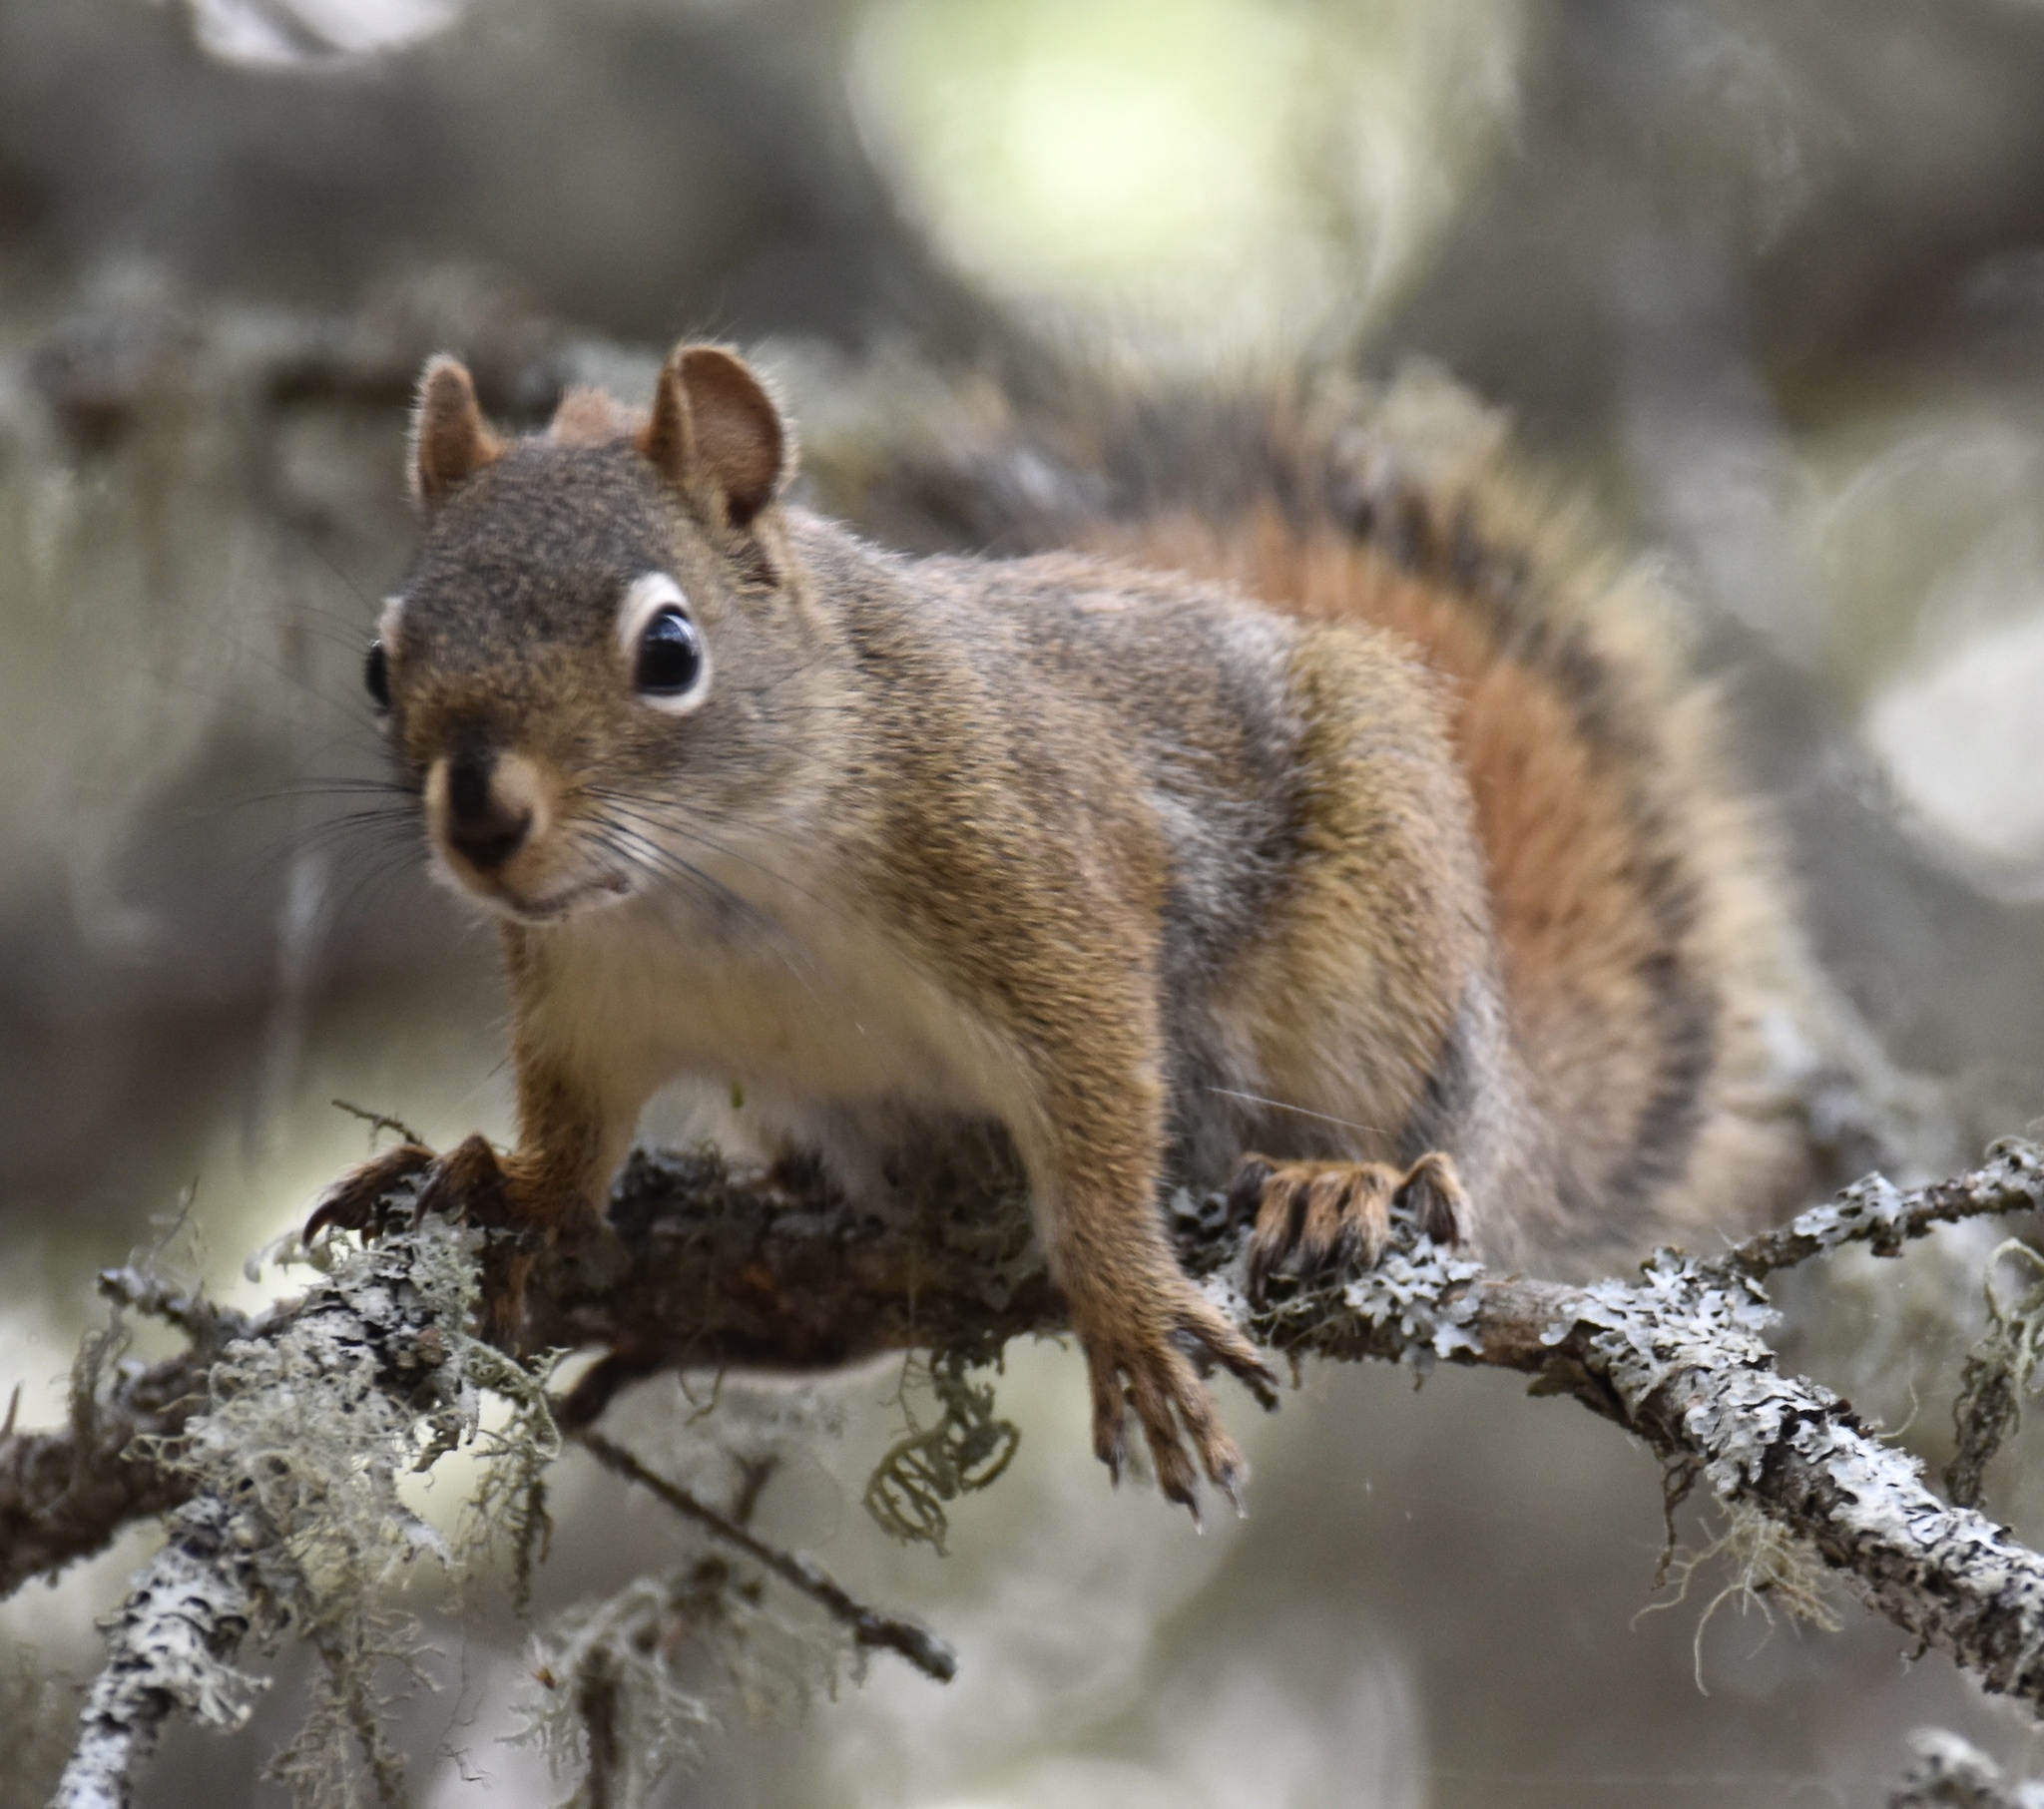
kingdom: Animalia
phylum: Chordata
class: Mammalia
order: Rodentia
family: Sciuridae
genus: Tamiasciurus
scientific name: Tamiasciurus hudsonicus
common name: Red squirrel
